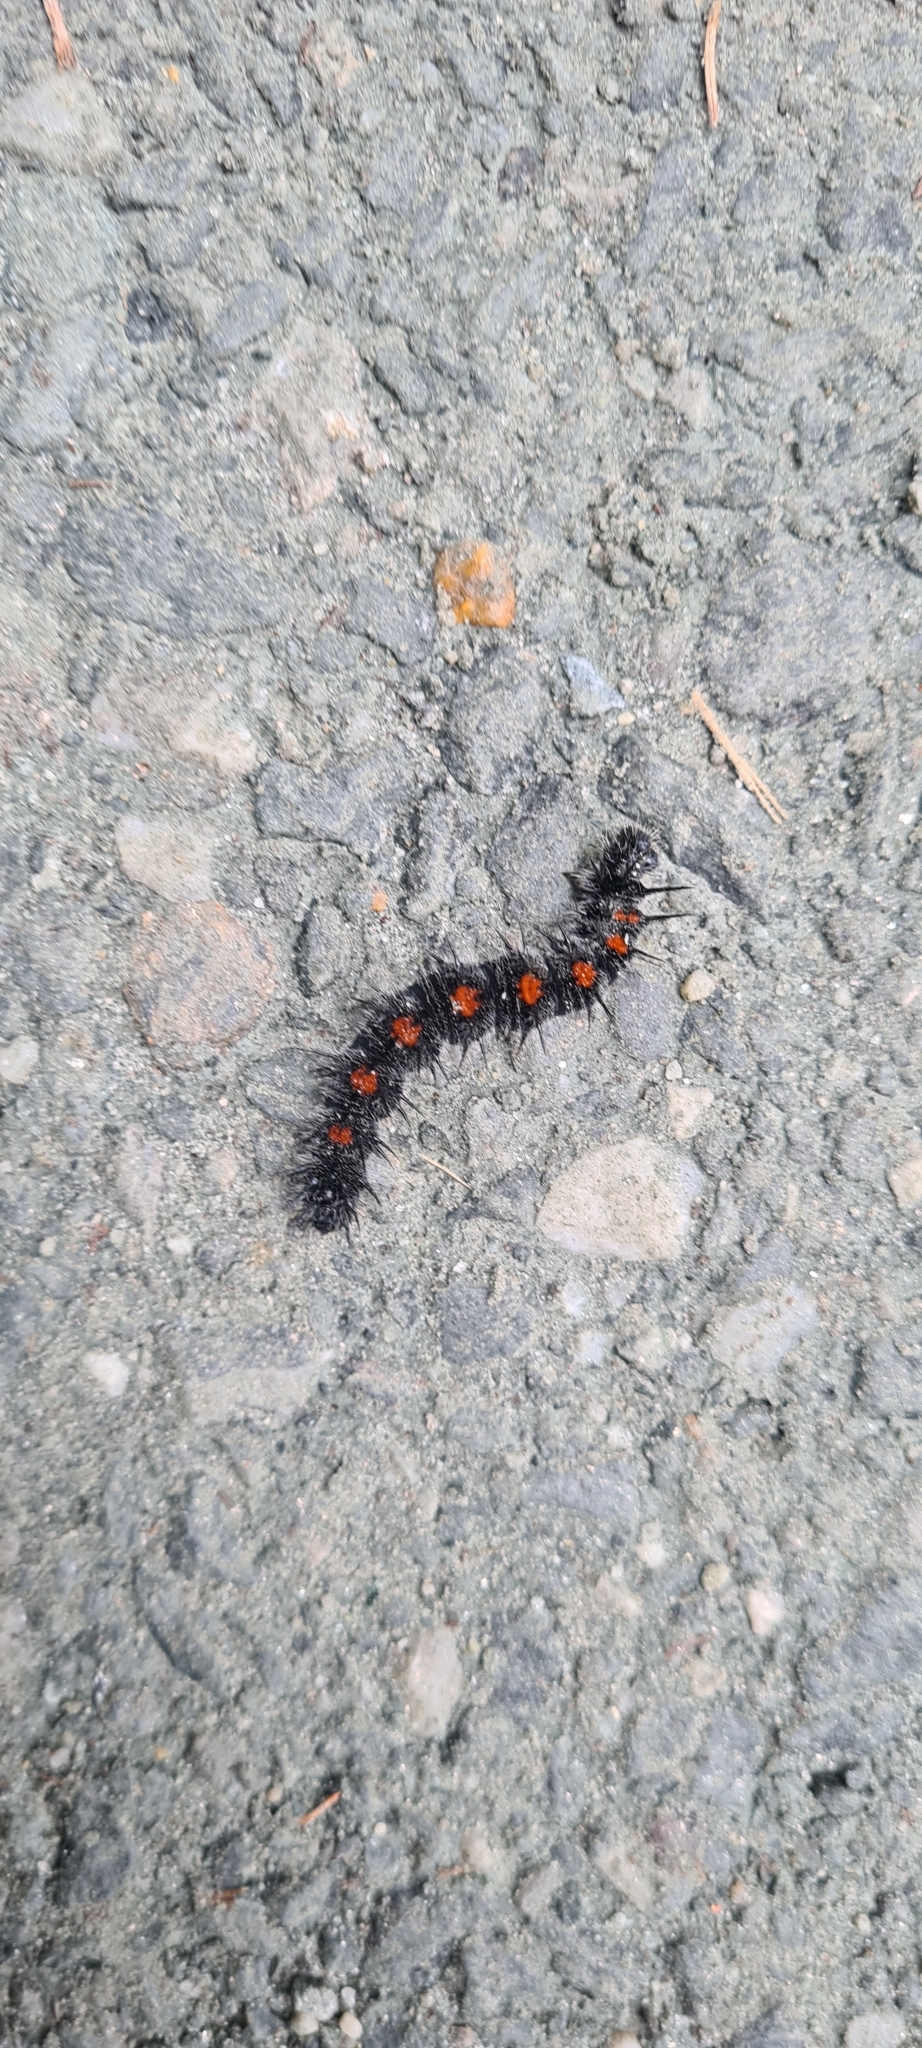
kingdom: Animalia
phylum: Arthropoda
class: Insecta
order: Lepidoptera
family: Nymphalidae
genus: Nymphalis
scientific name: Nymphalis antiopa
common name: Camberwell beauty
